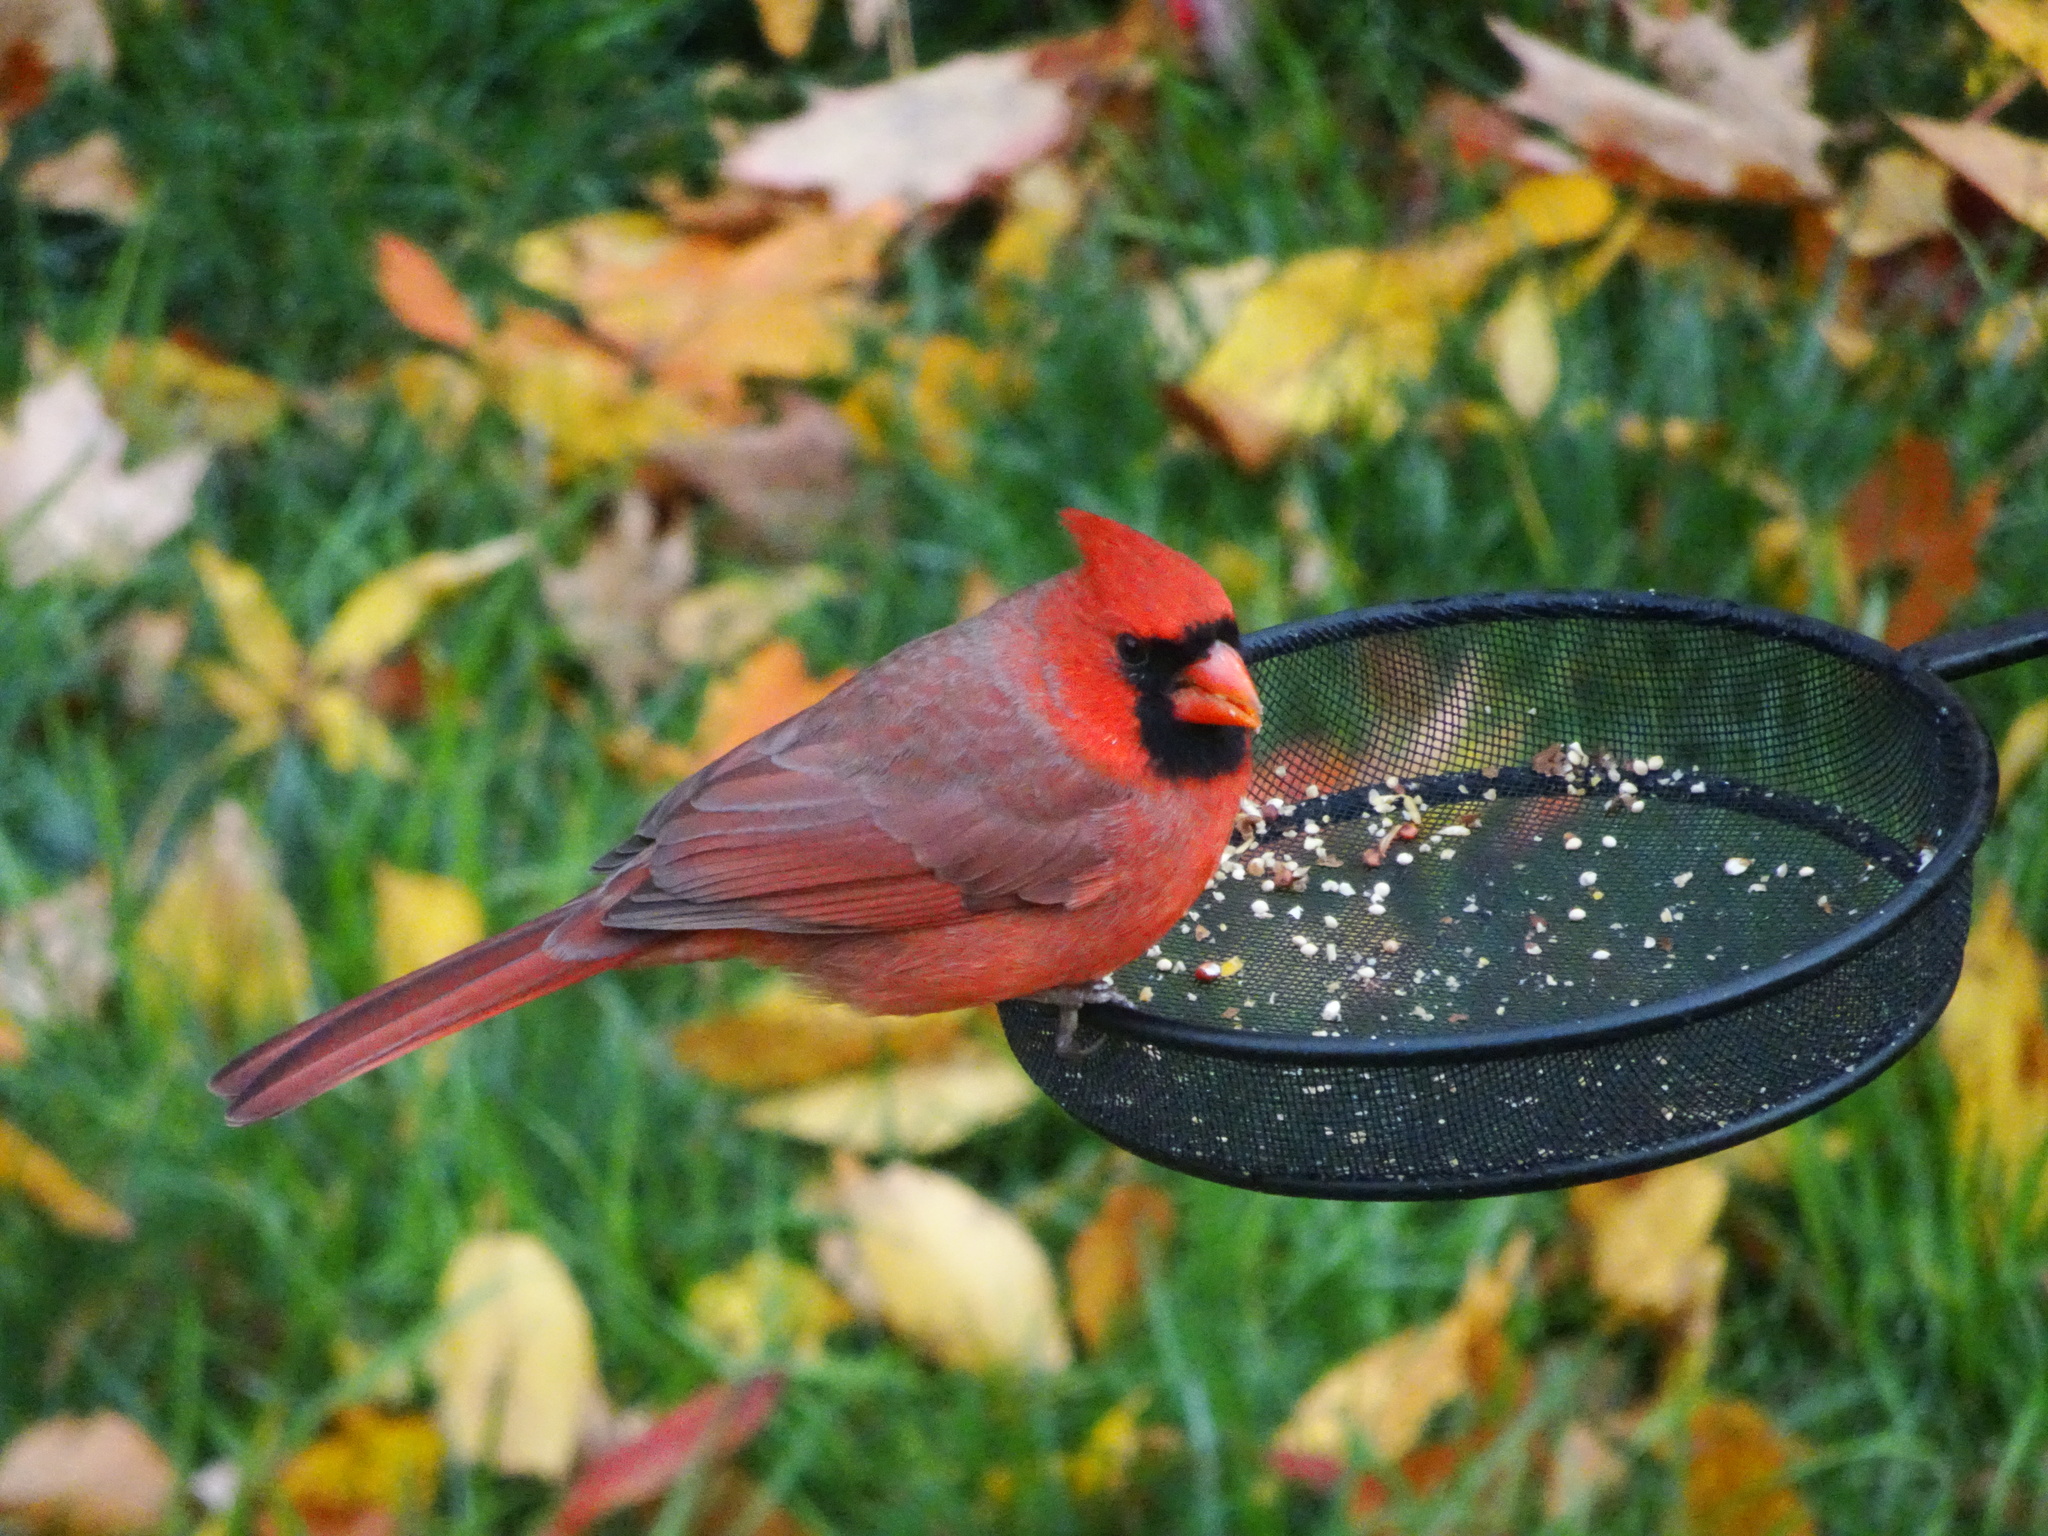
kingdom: Animalia
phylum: Chordata
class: Aves
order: Passeriformes
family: Cardinalidae
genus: Cardinalis
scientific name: Cardinalis cardinalis
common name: Northern cardinal
